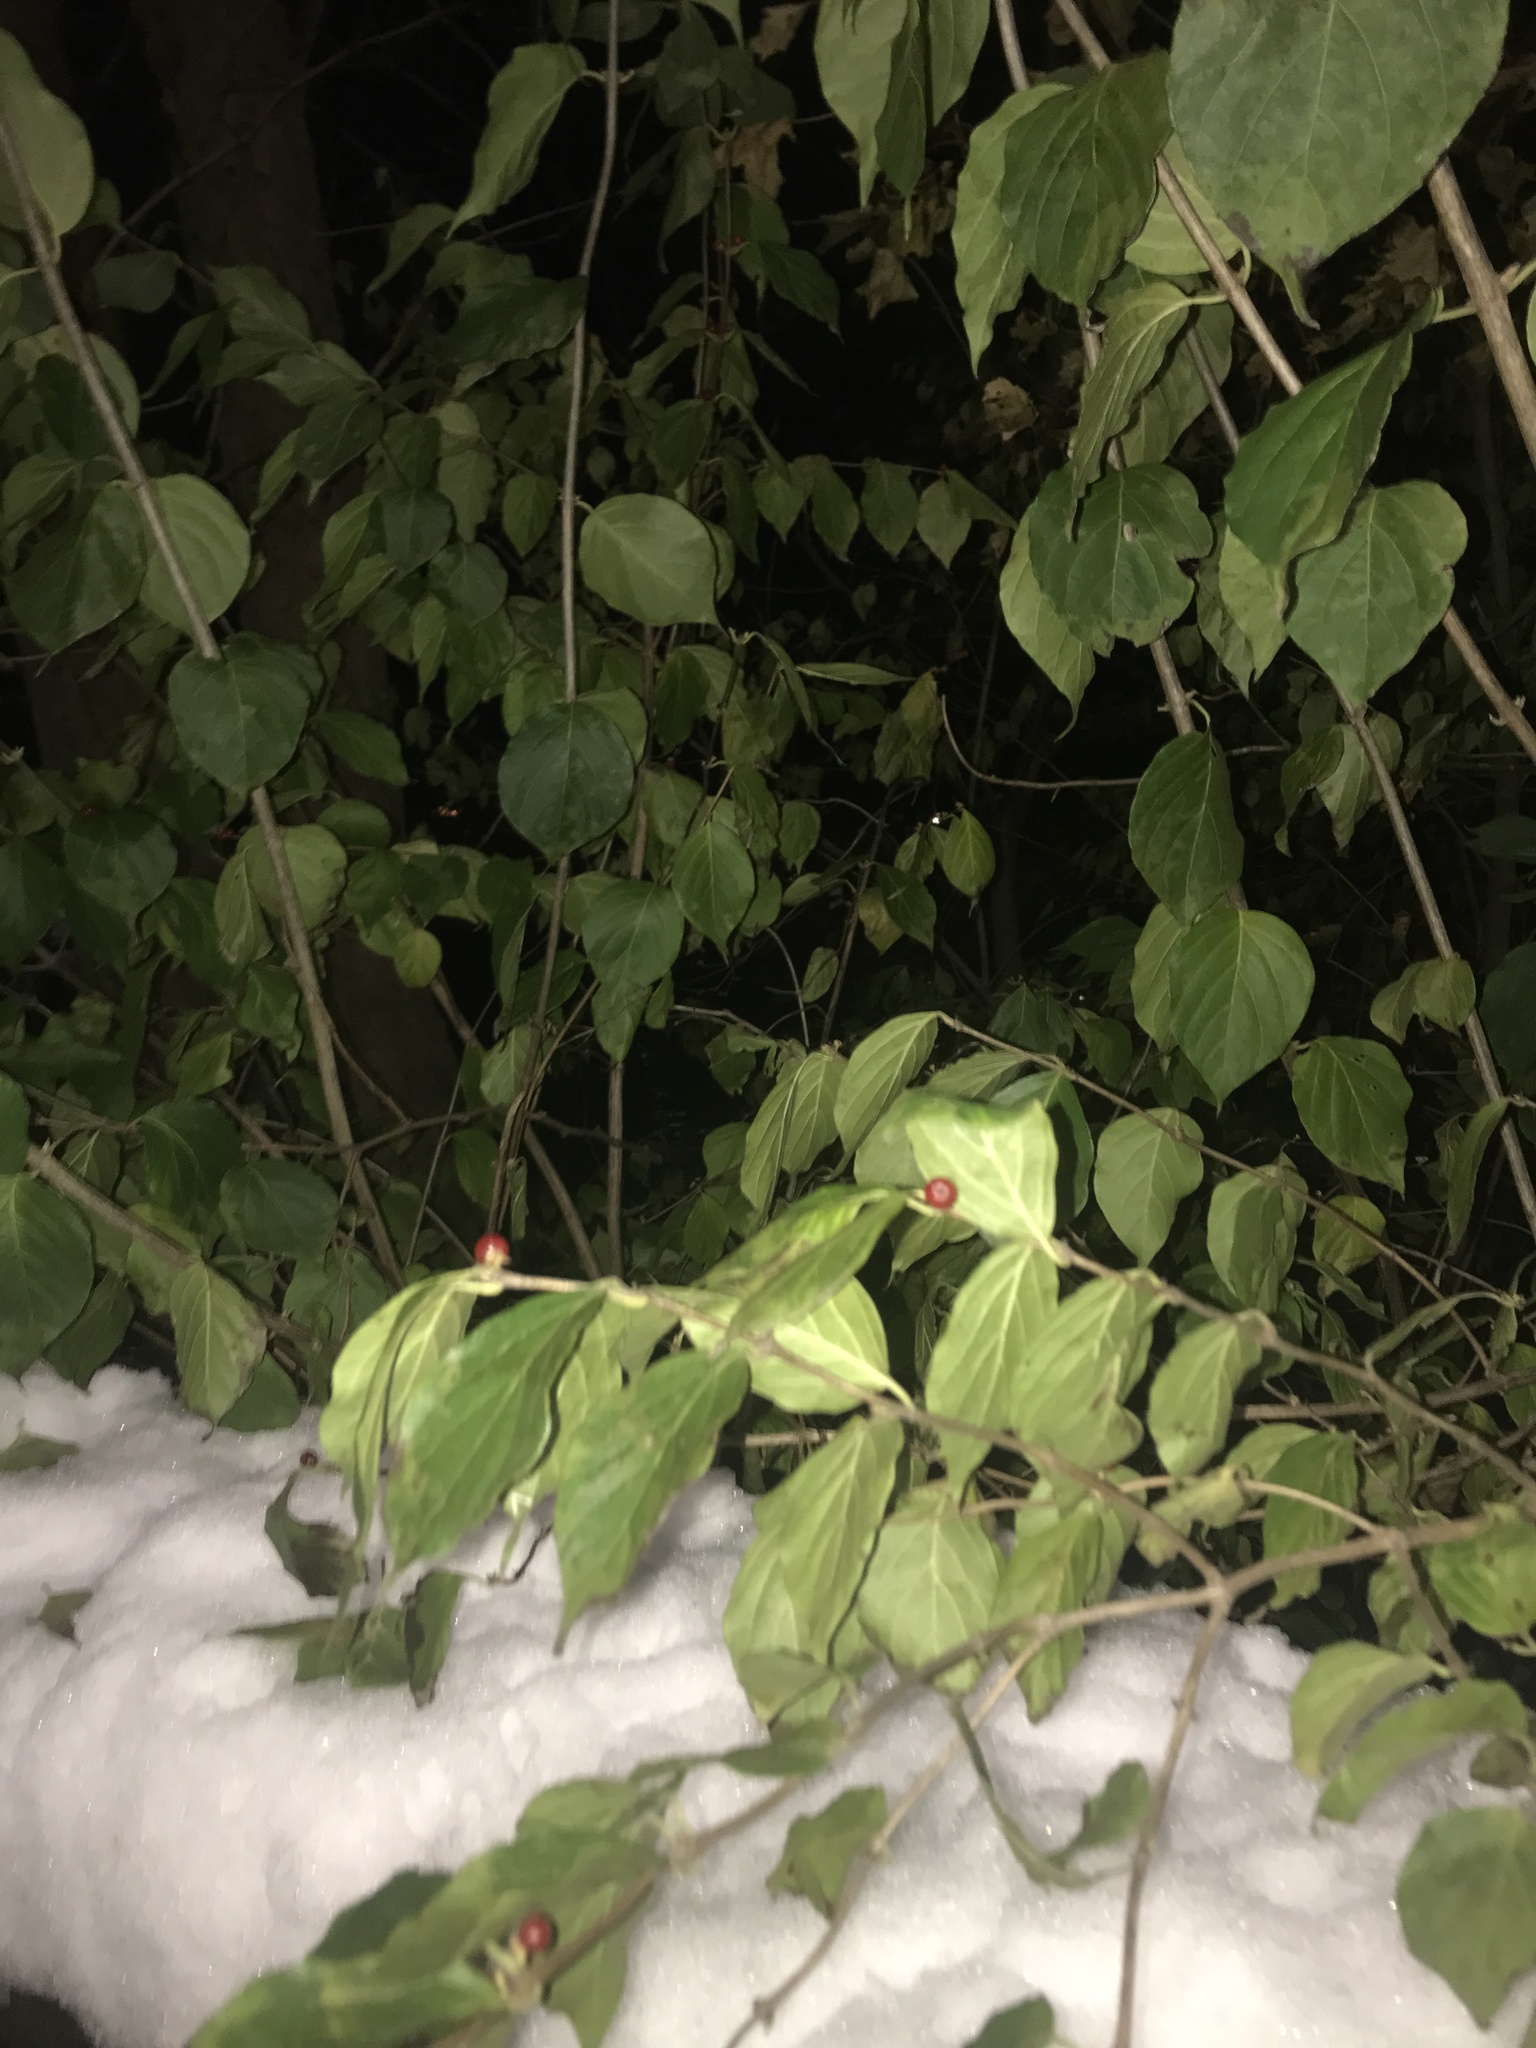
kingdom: Plantae
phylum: Tracheophyta
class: Magnoliopsida
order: Dipsacales
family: Caprifoliaceae
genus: Lonicera
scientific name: Lonicera maackii
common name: Amur honeysuckle
